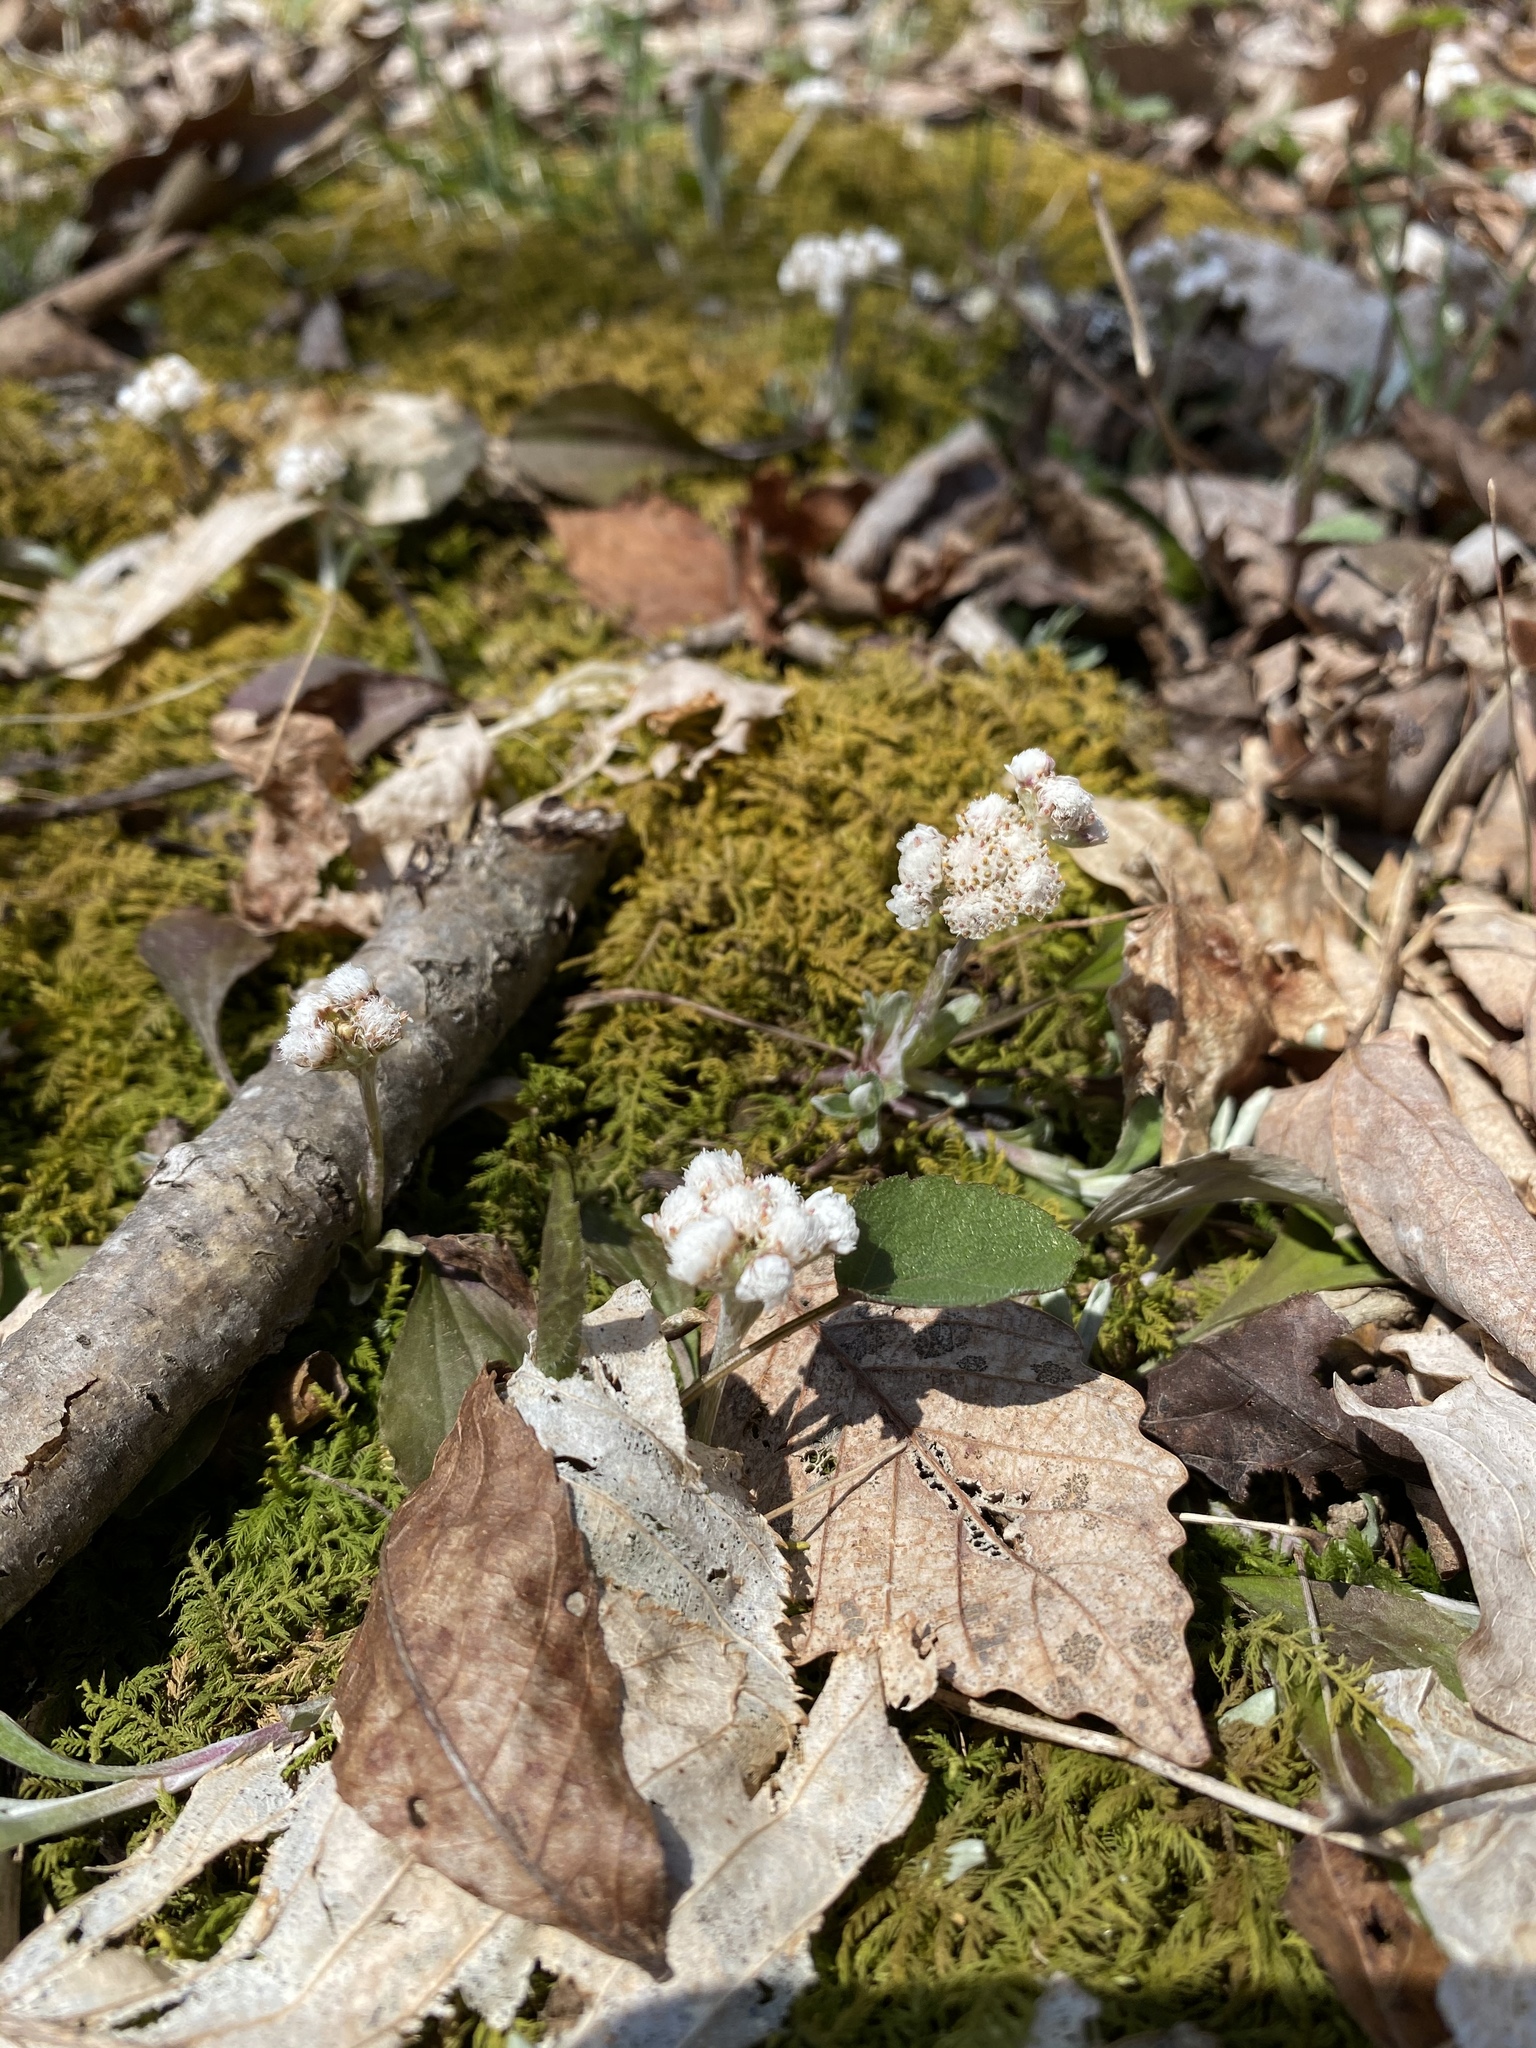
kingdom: Plantae
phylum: Tracheophyta
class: Magnoliopsida
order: Asterales
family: Asteraceae
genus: Antennaria
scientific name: Antennaria plantaginifolia
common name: Plantain-leaved pussytoes
